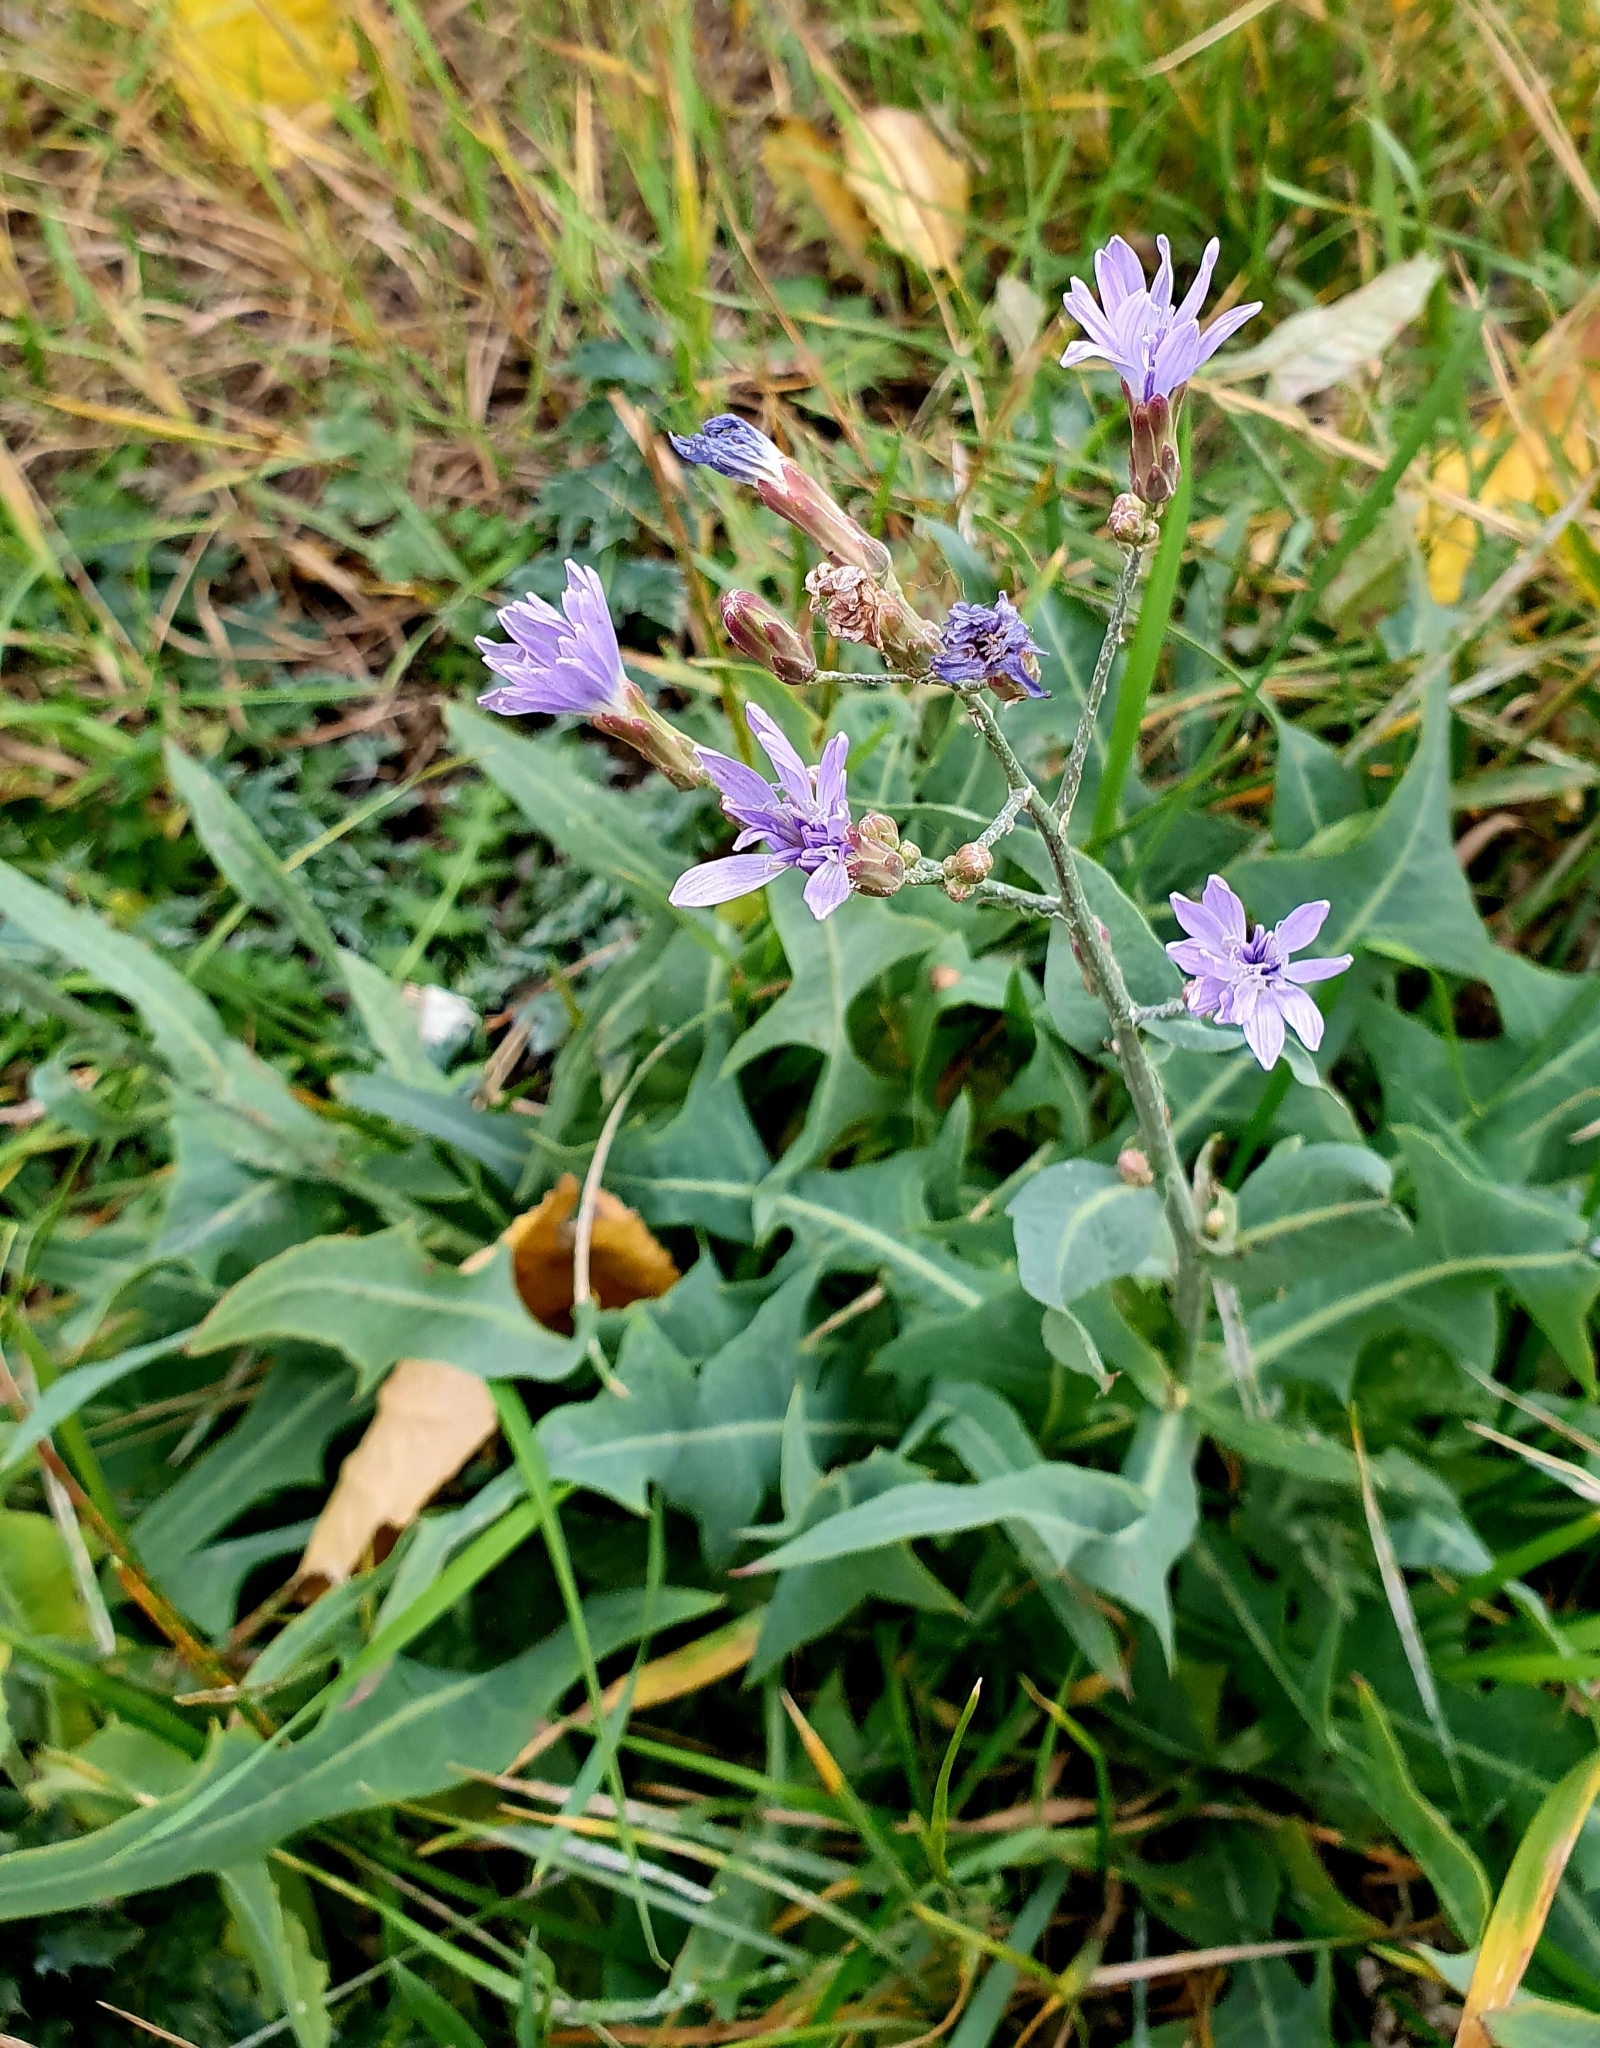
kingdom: Plantae
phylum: Tracheophyta
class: Magnoliopsida
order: Asterales
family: Asteraceae
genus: Lactuca
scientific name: Lactuca tatarica
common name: Blue lettuce
